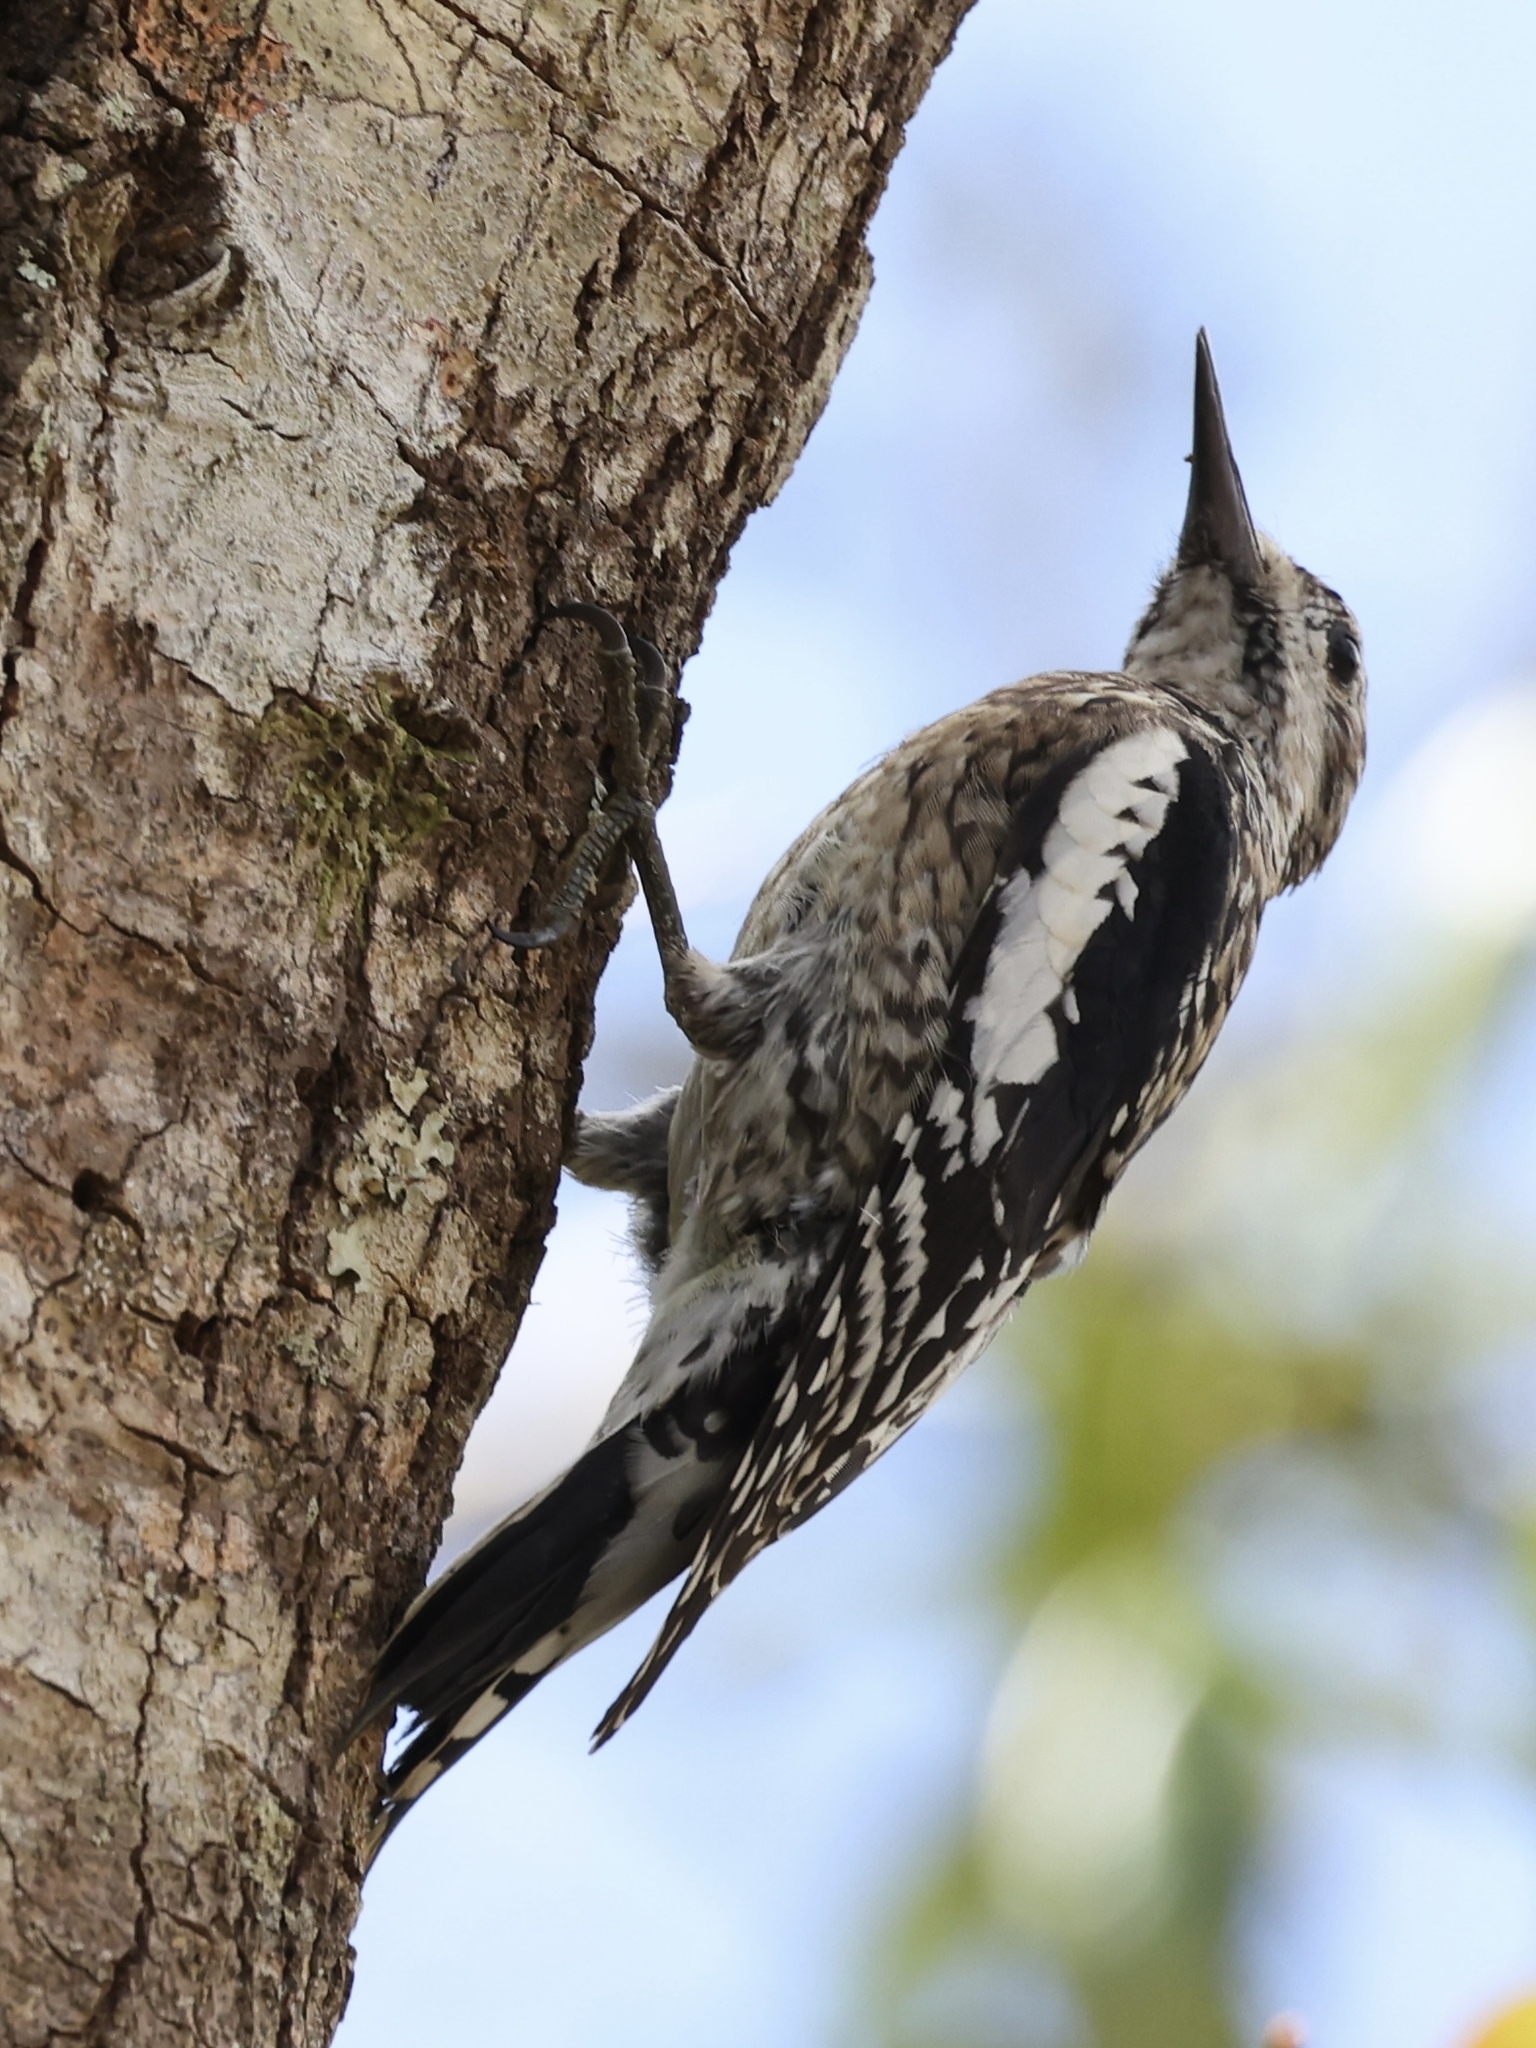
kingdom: Animalia
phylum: Chordata
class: Aves
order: Piciformes
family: Picidae
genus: Sphyrapicus
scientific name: Sphyrapicus varius
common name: Yellow-bellied sapsucker
